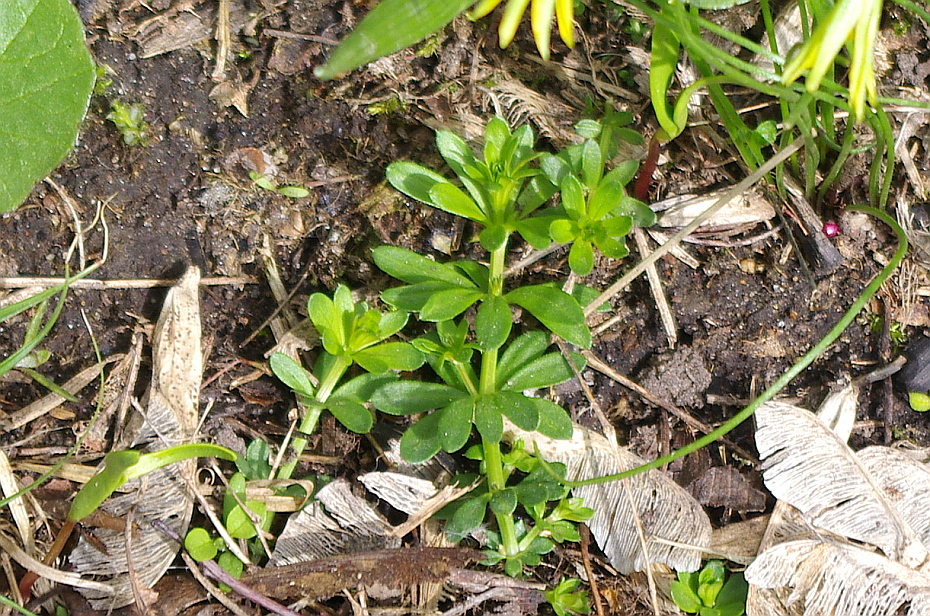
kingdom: Plantae
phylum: Tracheophyta
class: Magnoliopsida
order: Gentianales
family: Rubiaceae
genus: Galium
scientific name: Galium mollugo
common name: Hedge bedstraw
